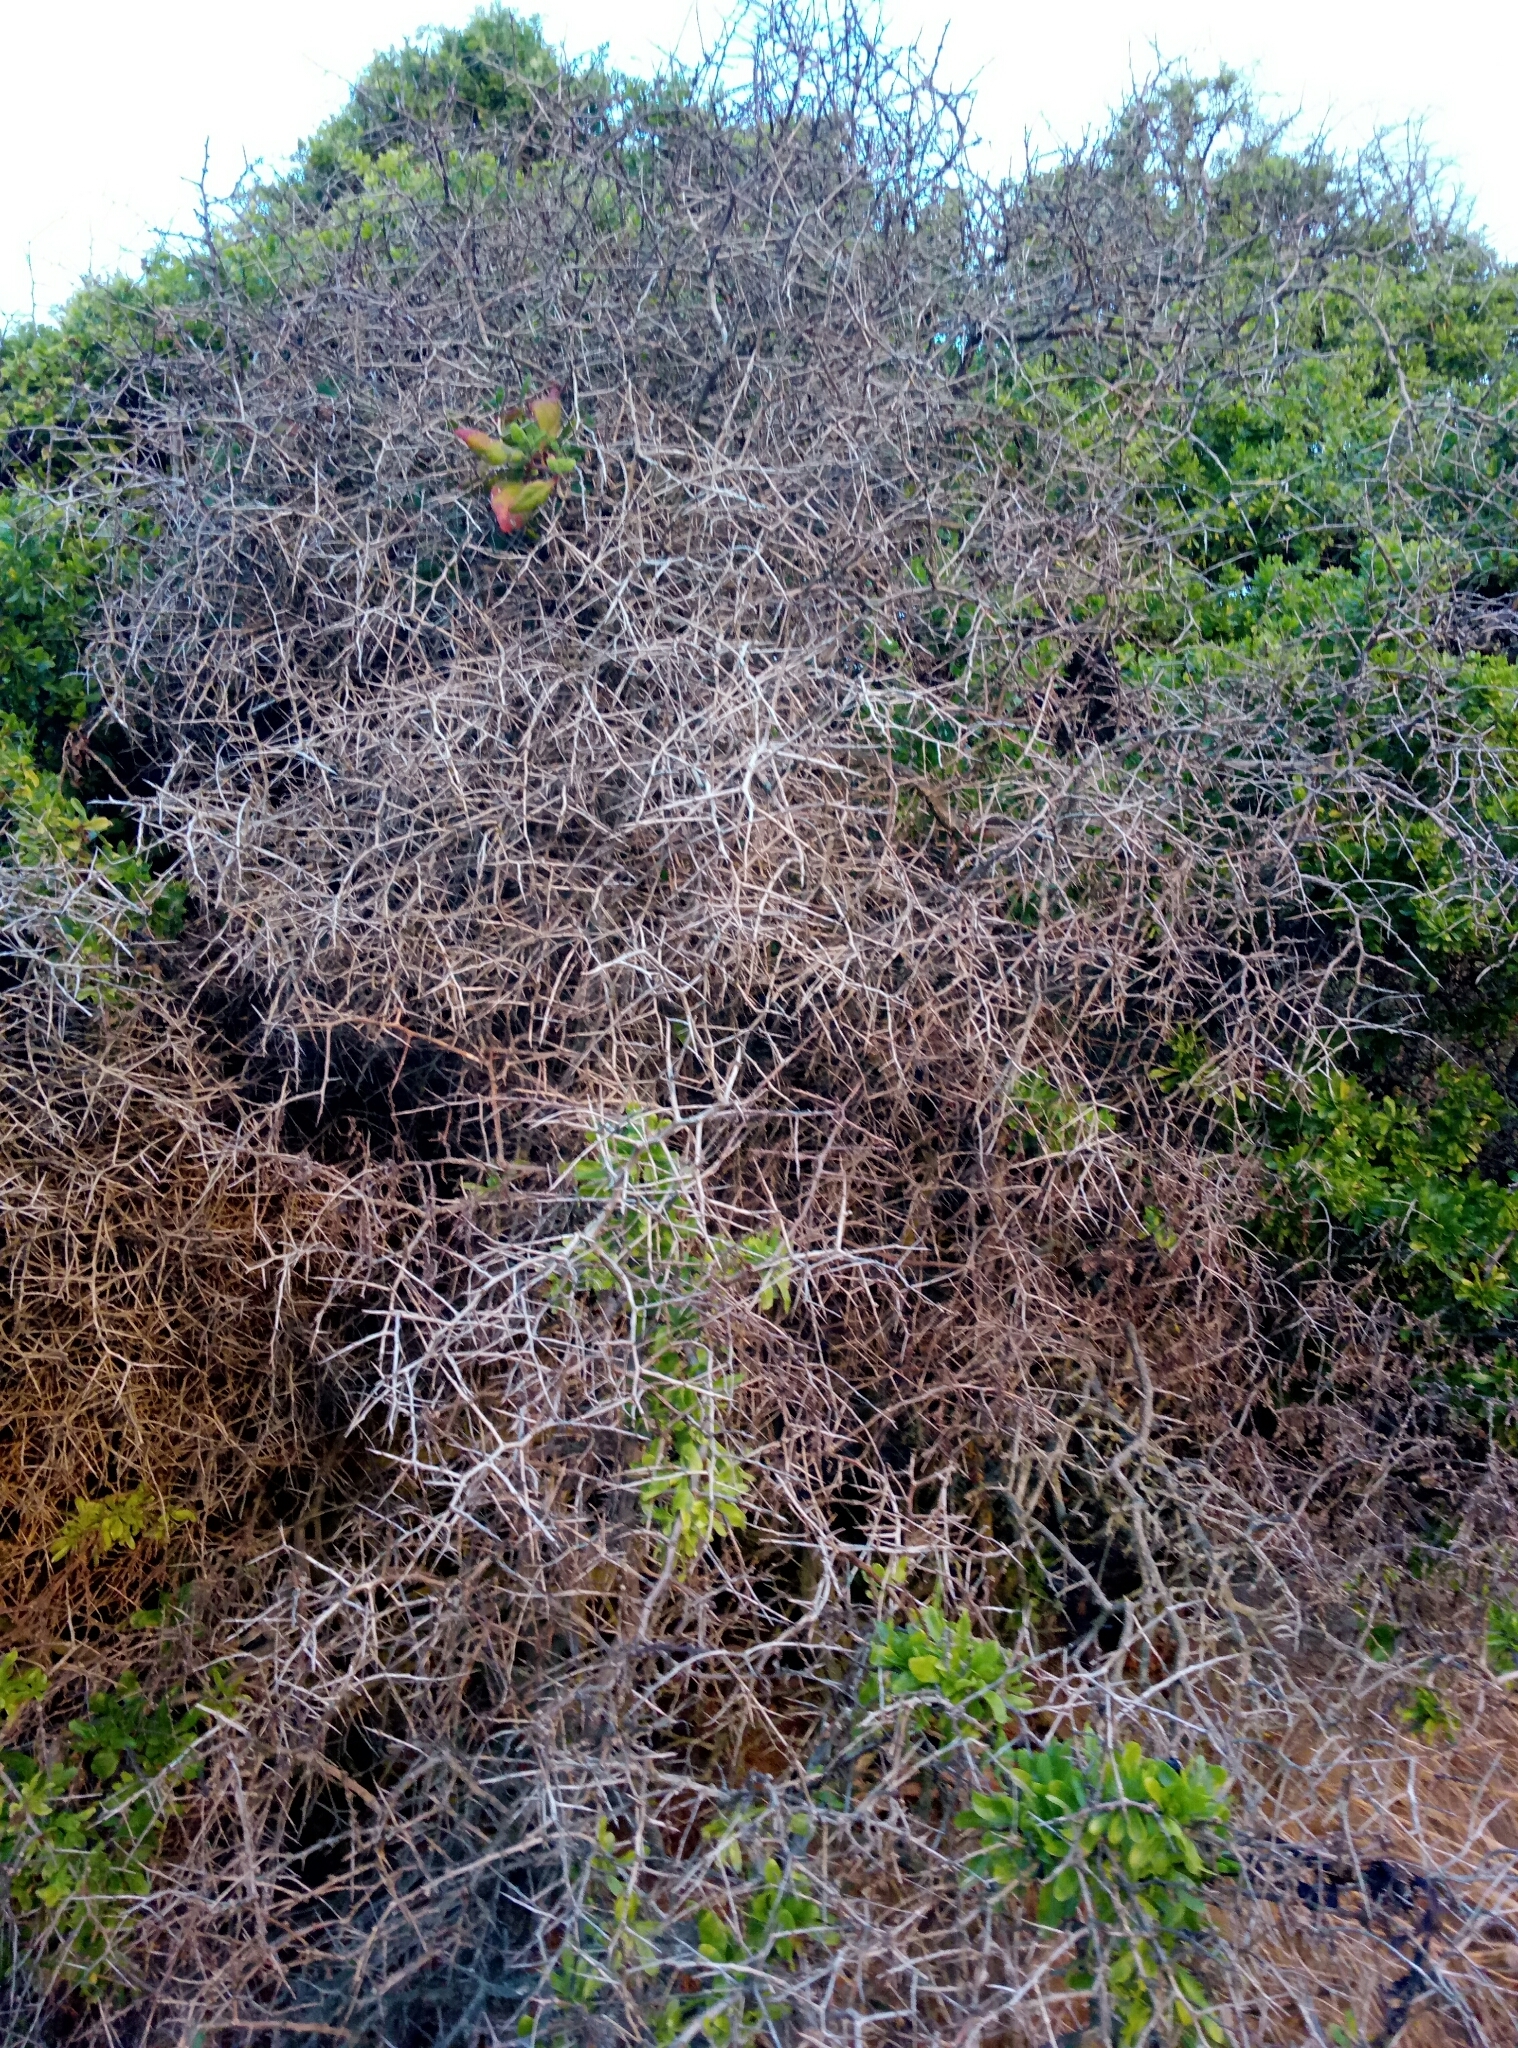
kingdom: Plantae
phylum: Tracheophyta
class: Magnoliopsida
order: Solanales
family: Solanaceae
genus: Lycium
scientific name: Lycium ferocissimum
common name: African boxthorn
